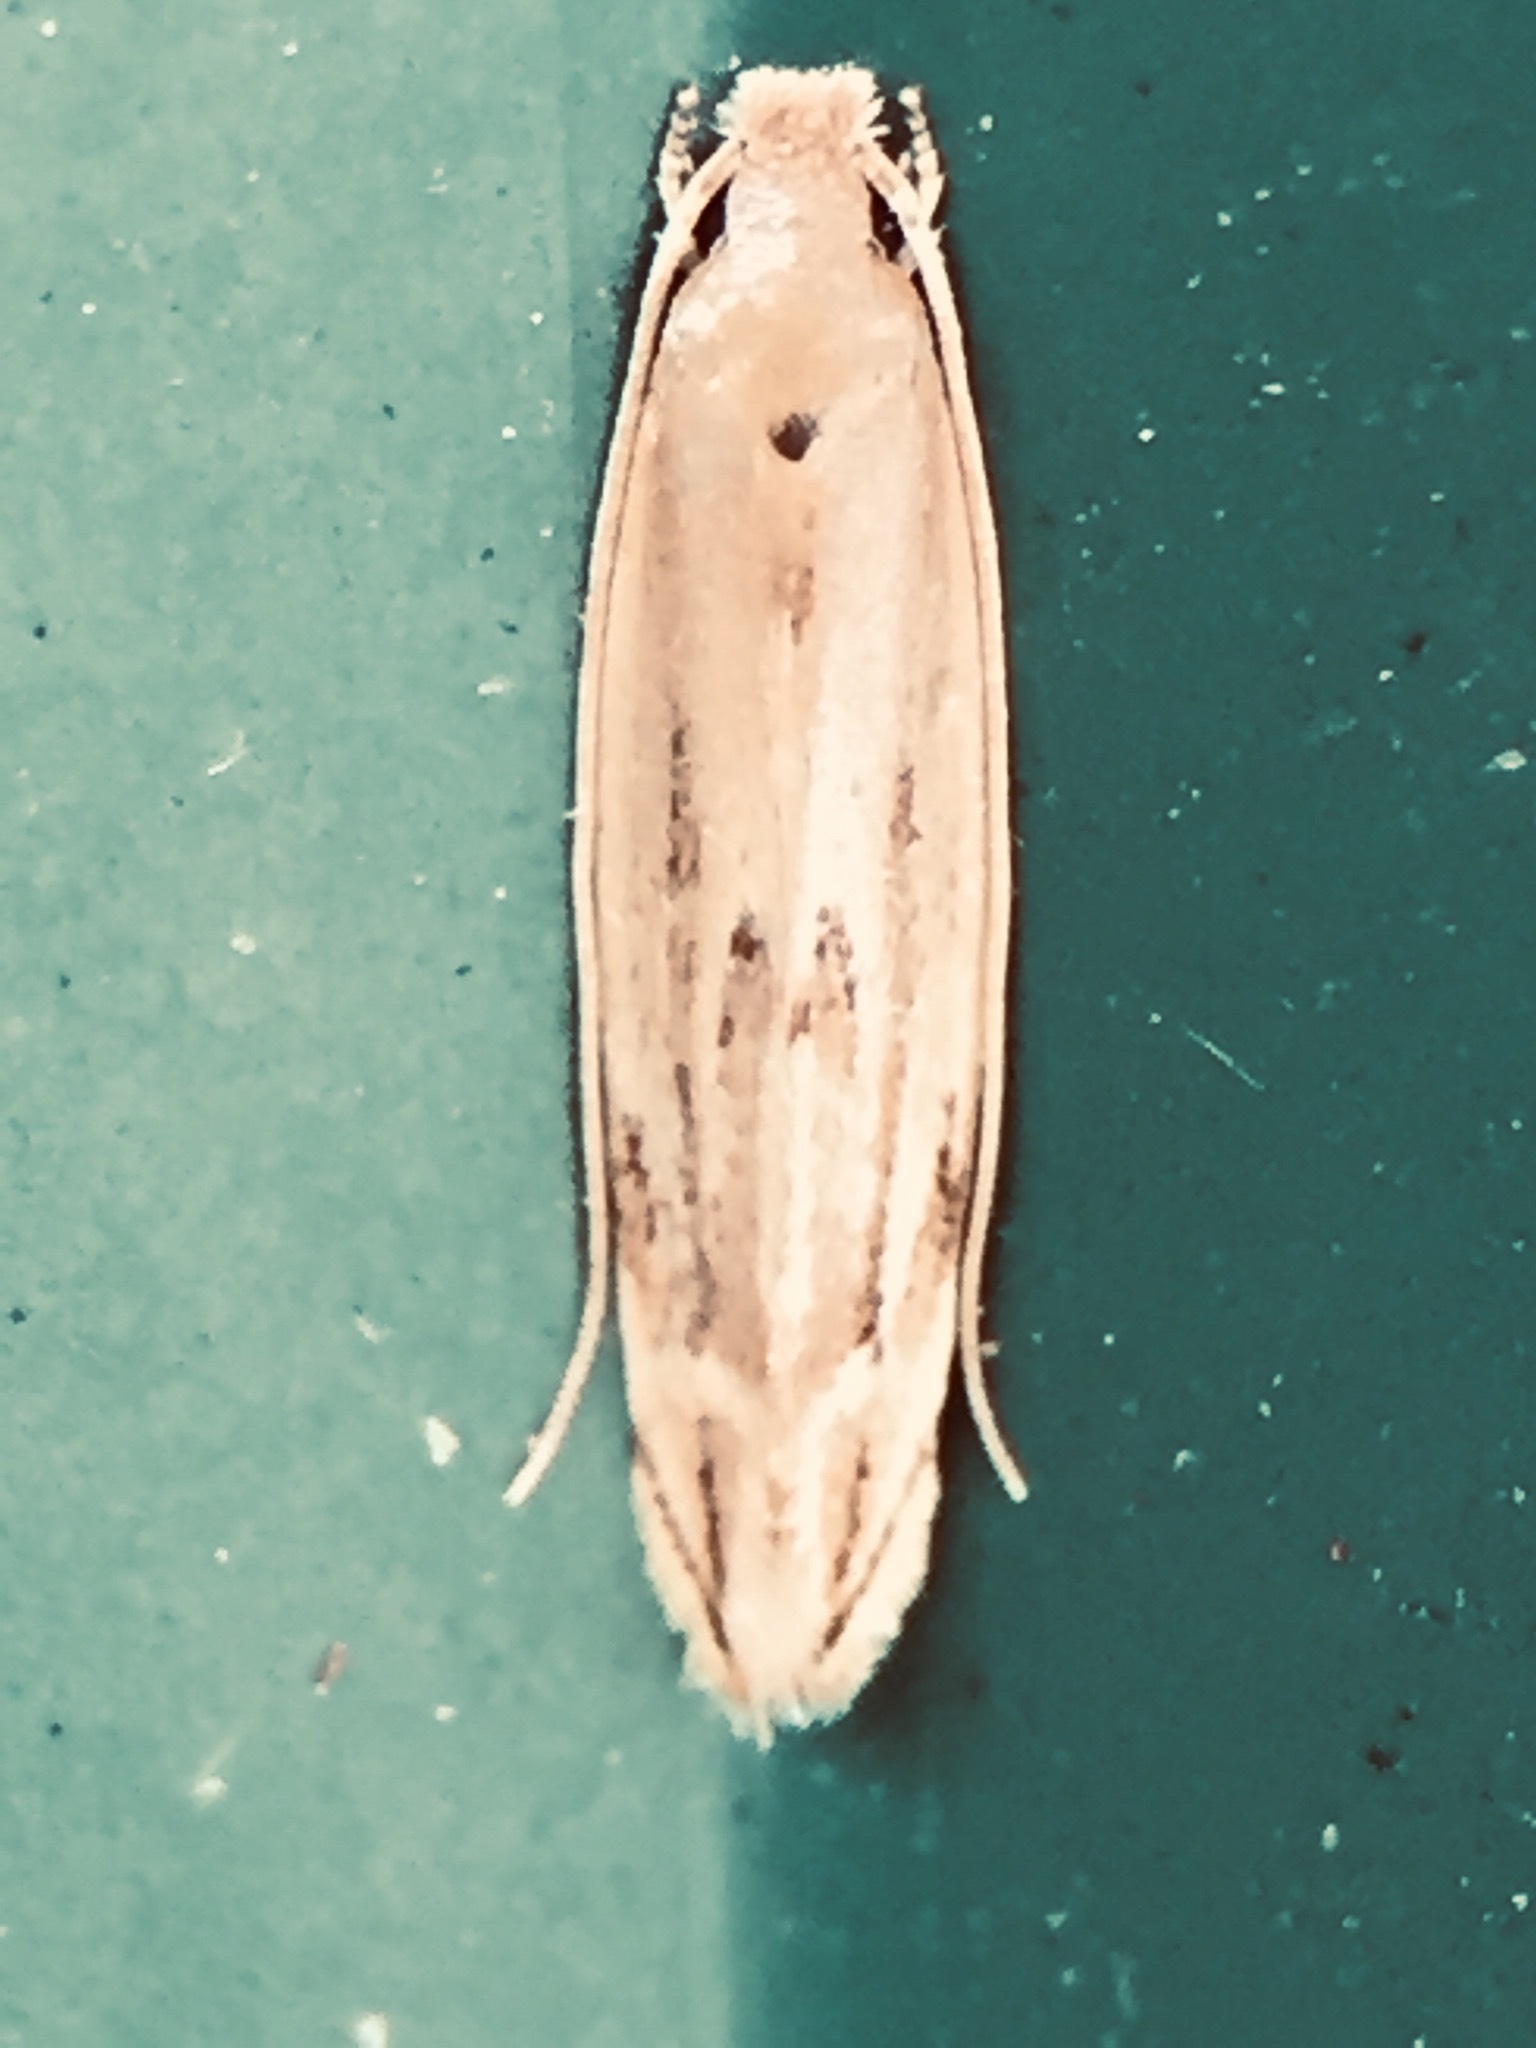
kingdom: Animalia
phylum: Arthropoda
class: Insecta
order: Lepidoptera
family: Tineidae
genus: Amphixystis
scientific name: Amphixystis hapsimacha
